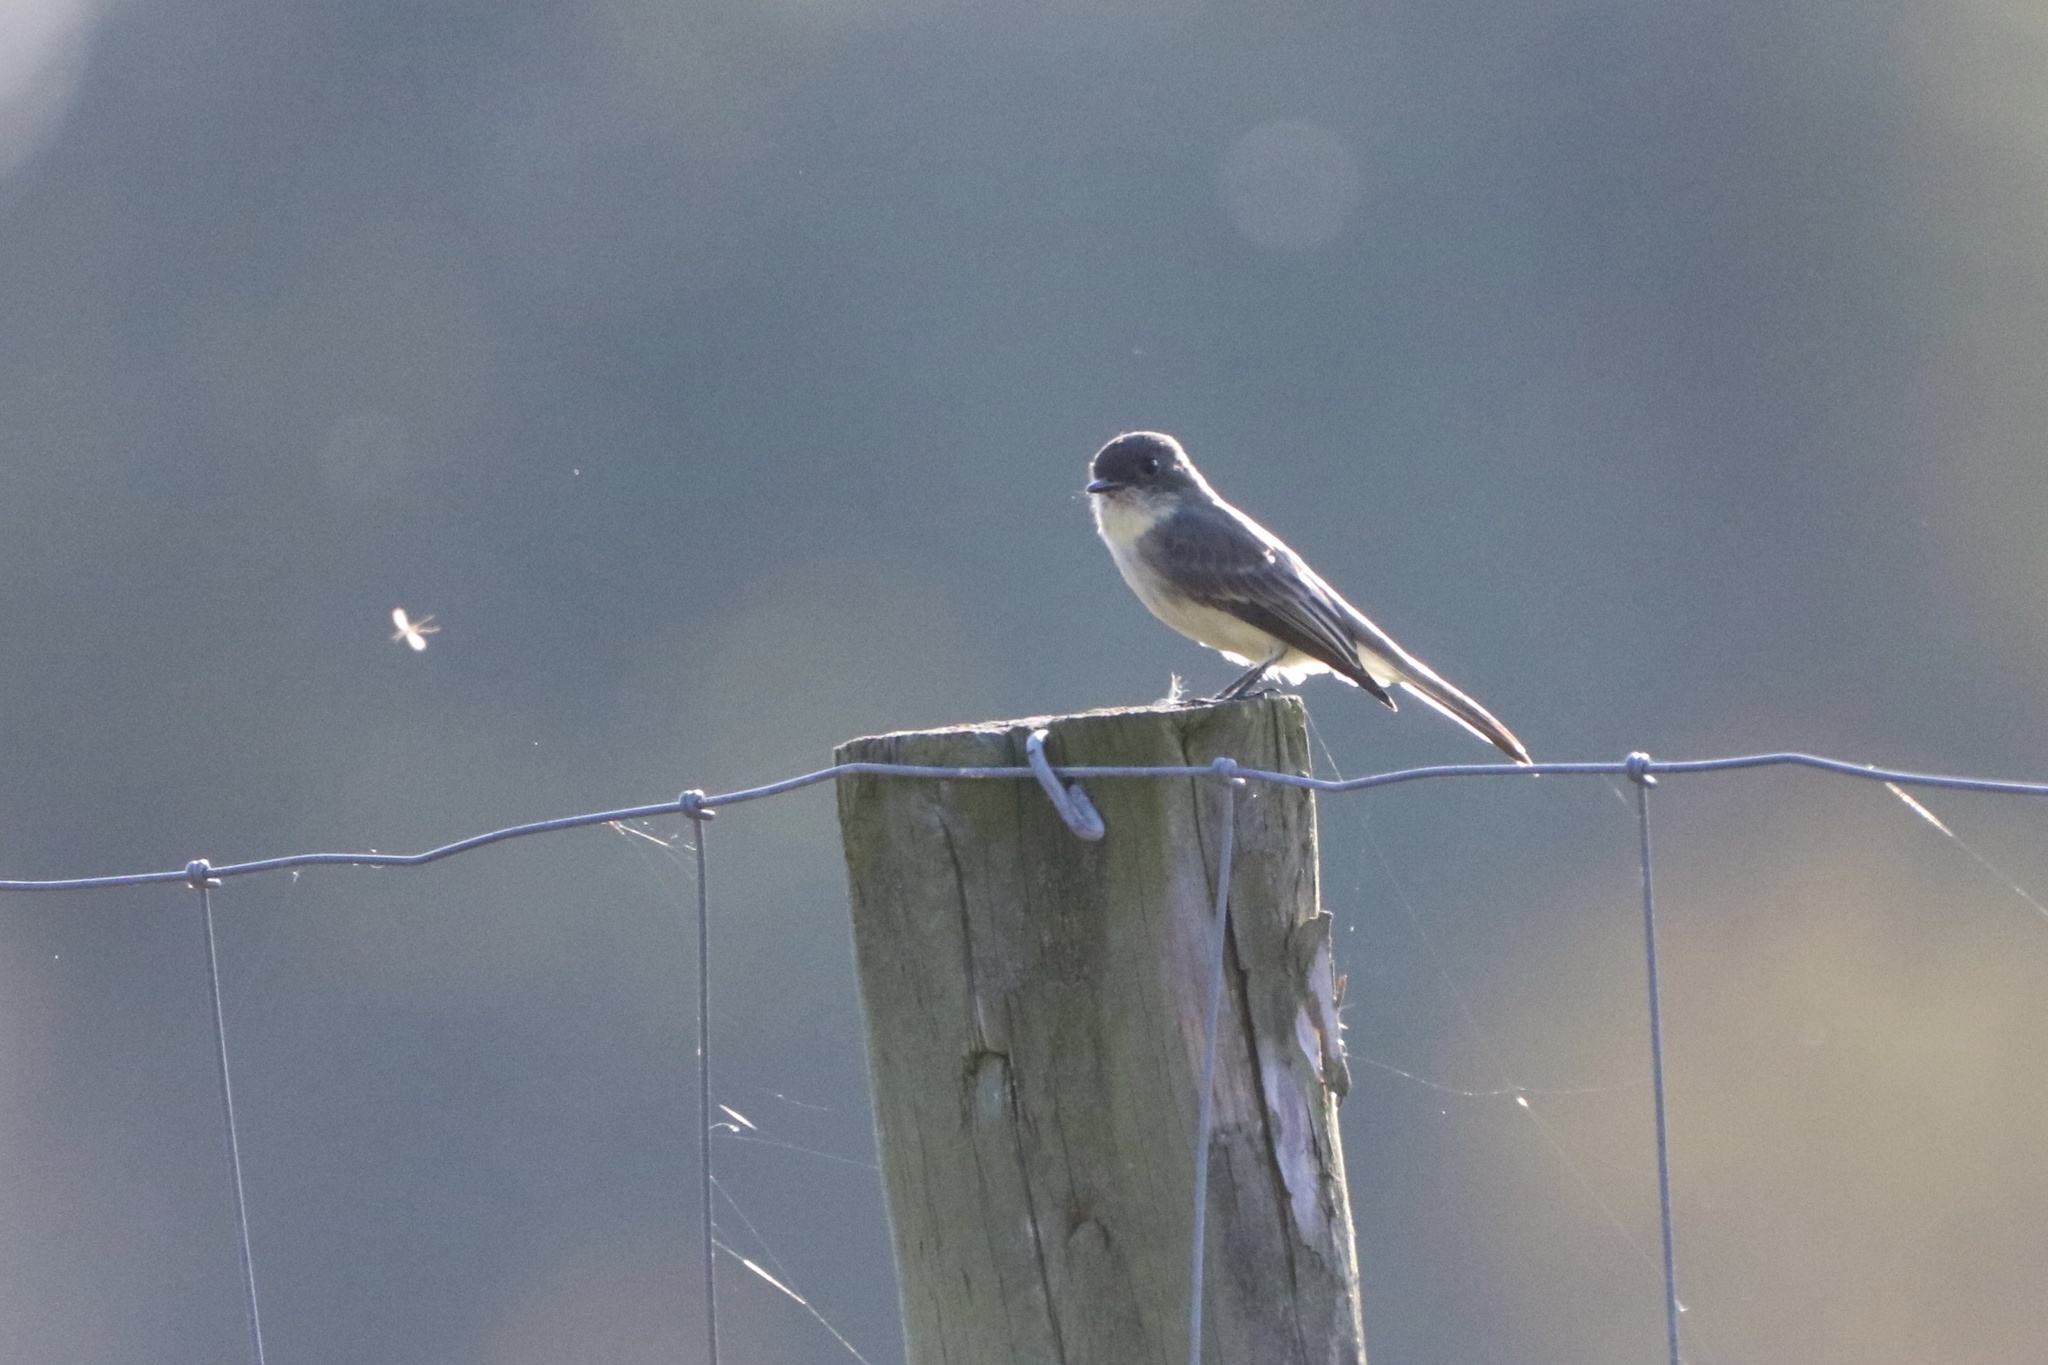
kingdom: Animalia
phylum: Chordata
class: Aves
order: Passeriformes
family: Tyrannidae
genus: Sayornis
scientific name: Sayornis phoebe
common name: Eastern phoebe
